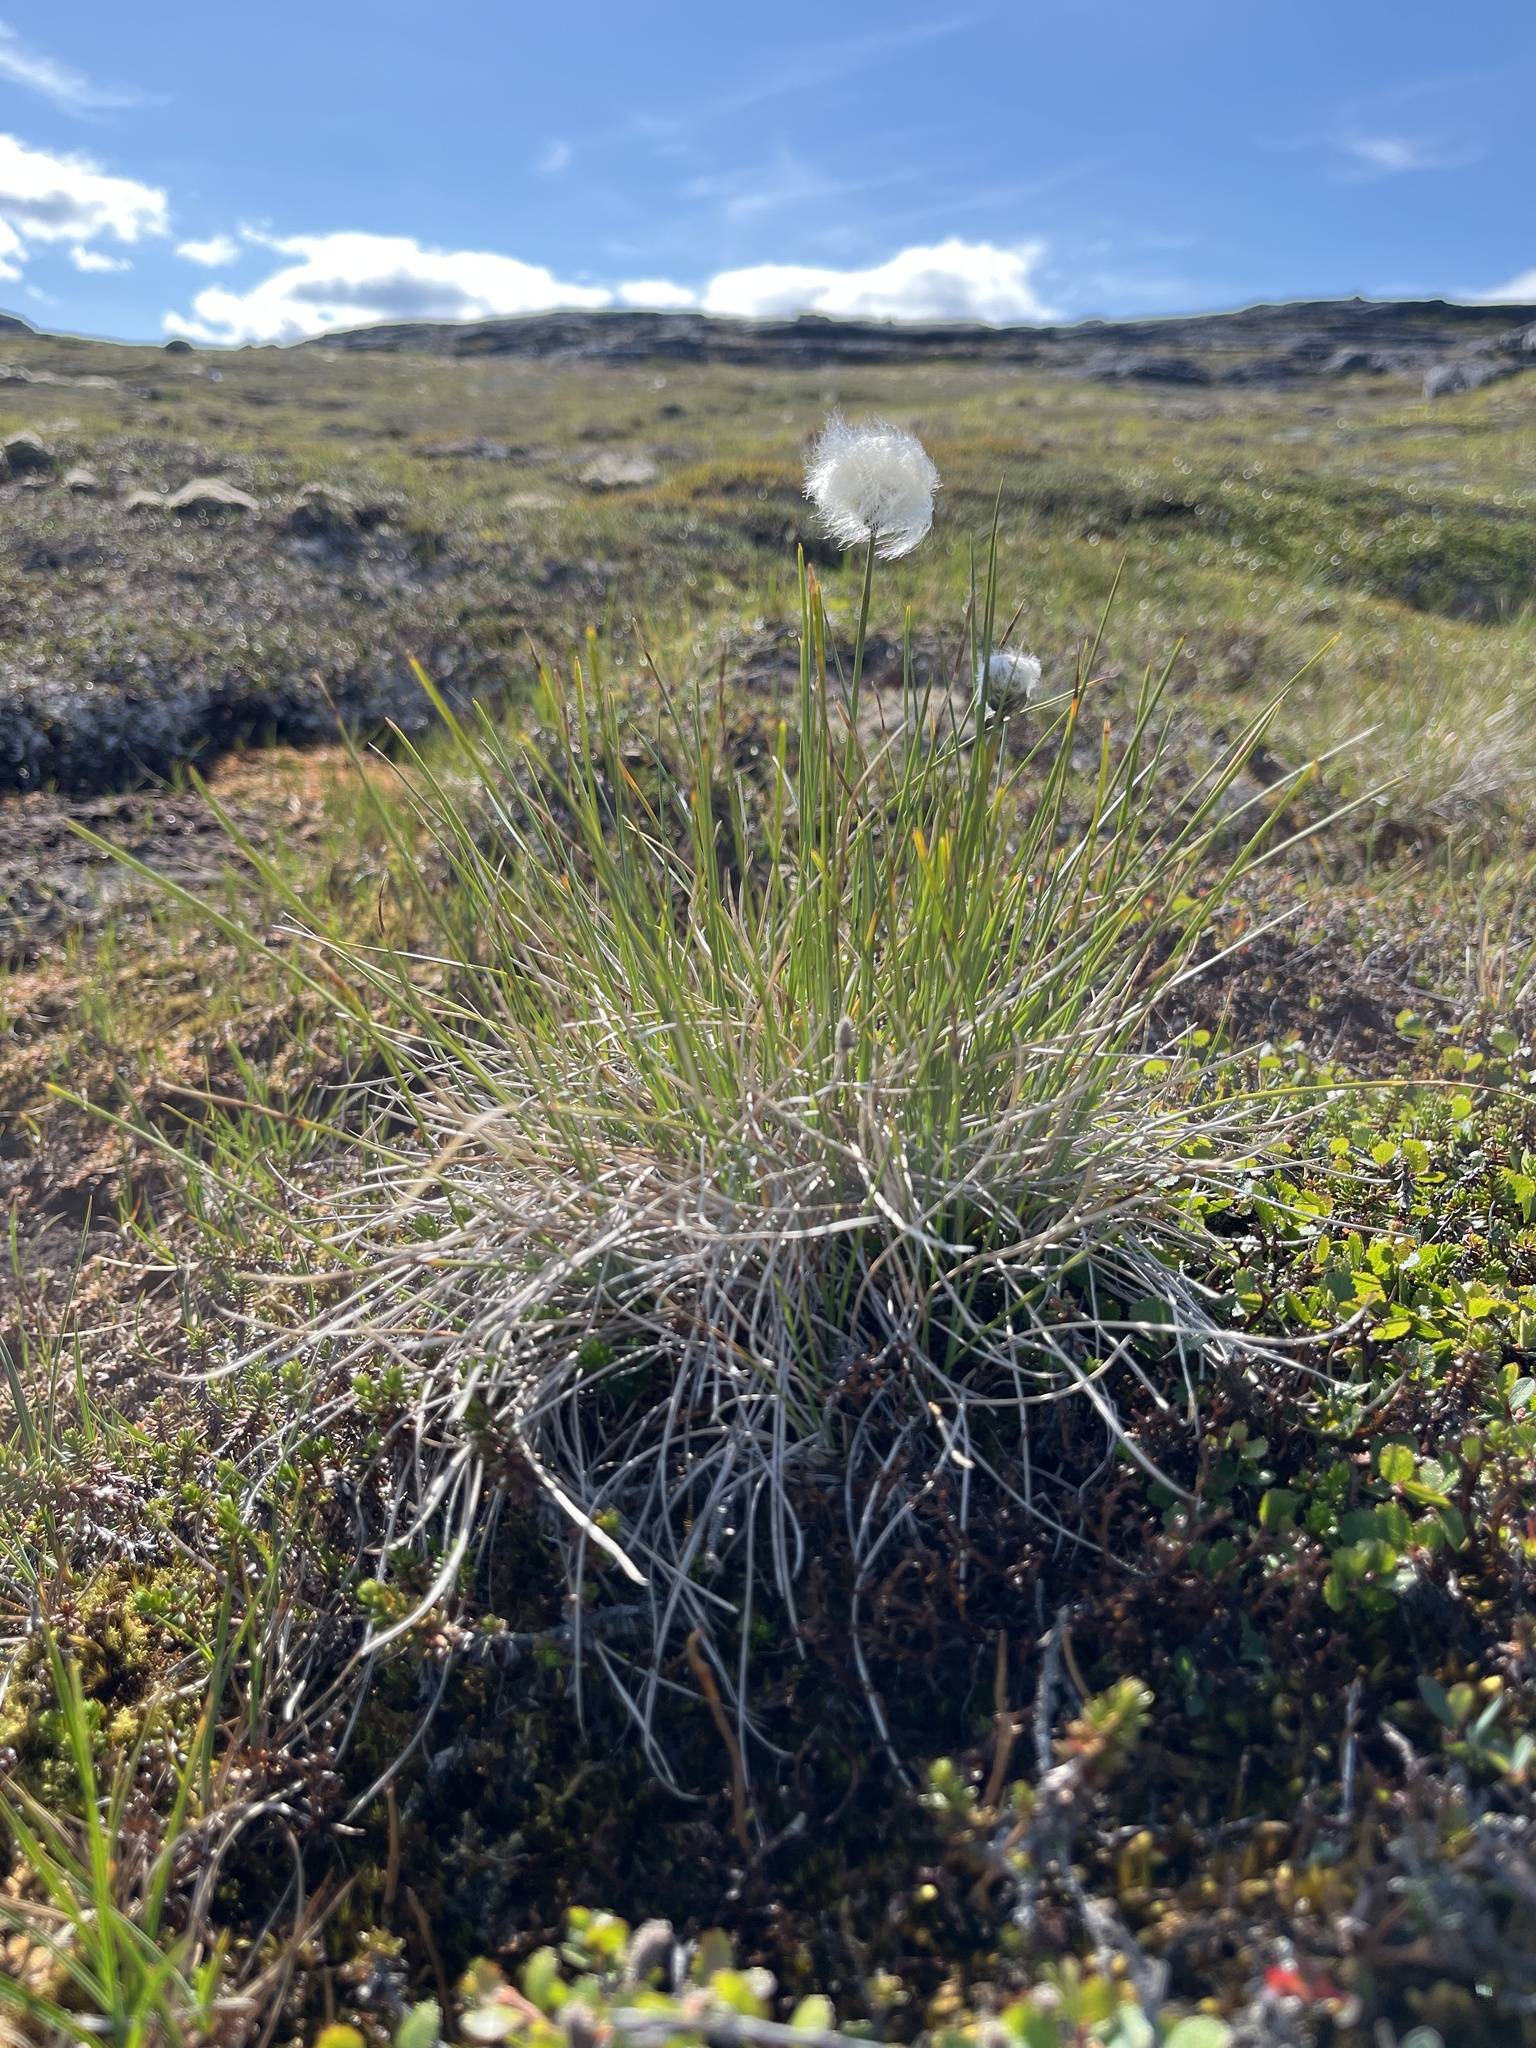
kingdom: Plantae
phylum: Tracheophyta
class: Liliopsida
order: Poales
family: Cyperaceae
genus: Eriophorum
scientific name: Eriophorum vaginatum
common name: Hare's-tail cottongrass
